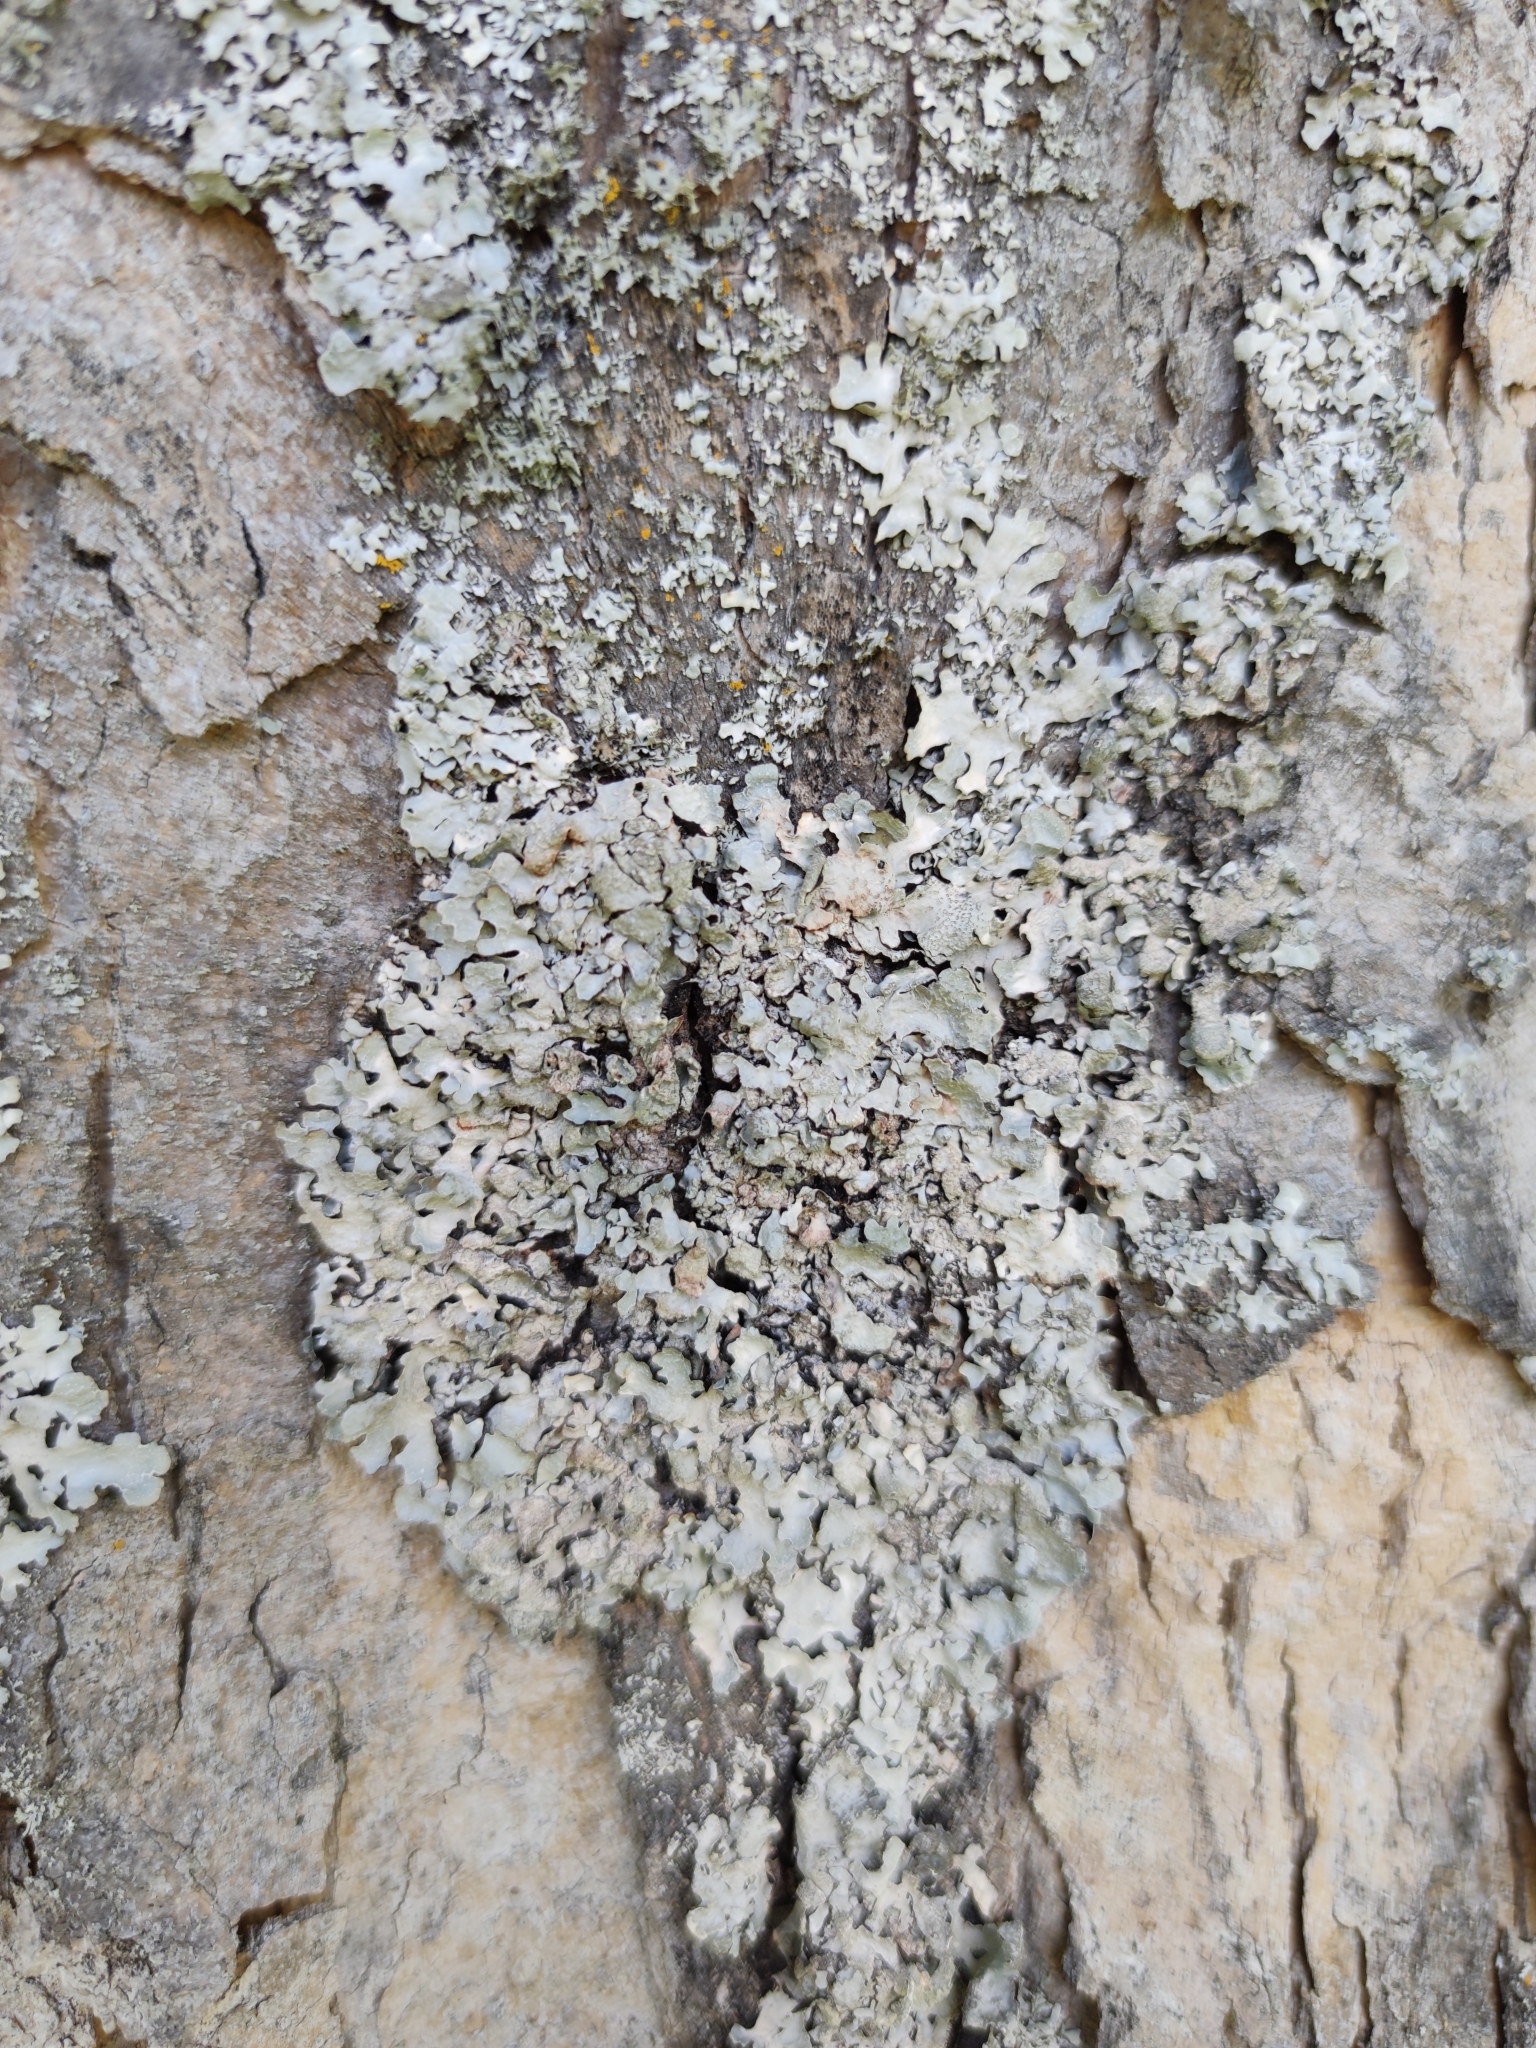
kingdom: Fungi
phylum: Ascomycota
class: Lecanoromycetes
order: Lecanorales
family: Parmeliaceae
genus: Parmelia
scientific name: Parmelia sulcata
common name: Netted shield lichen
